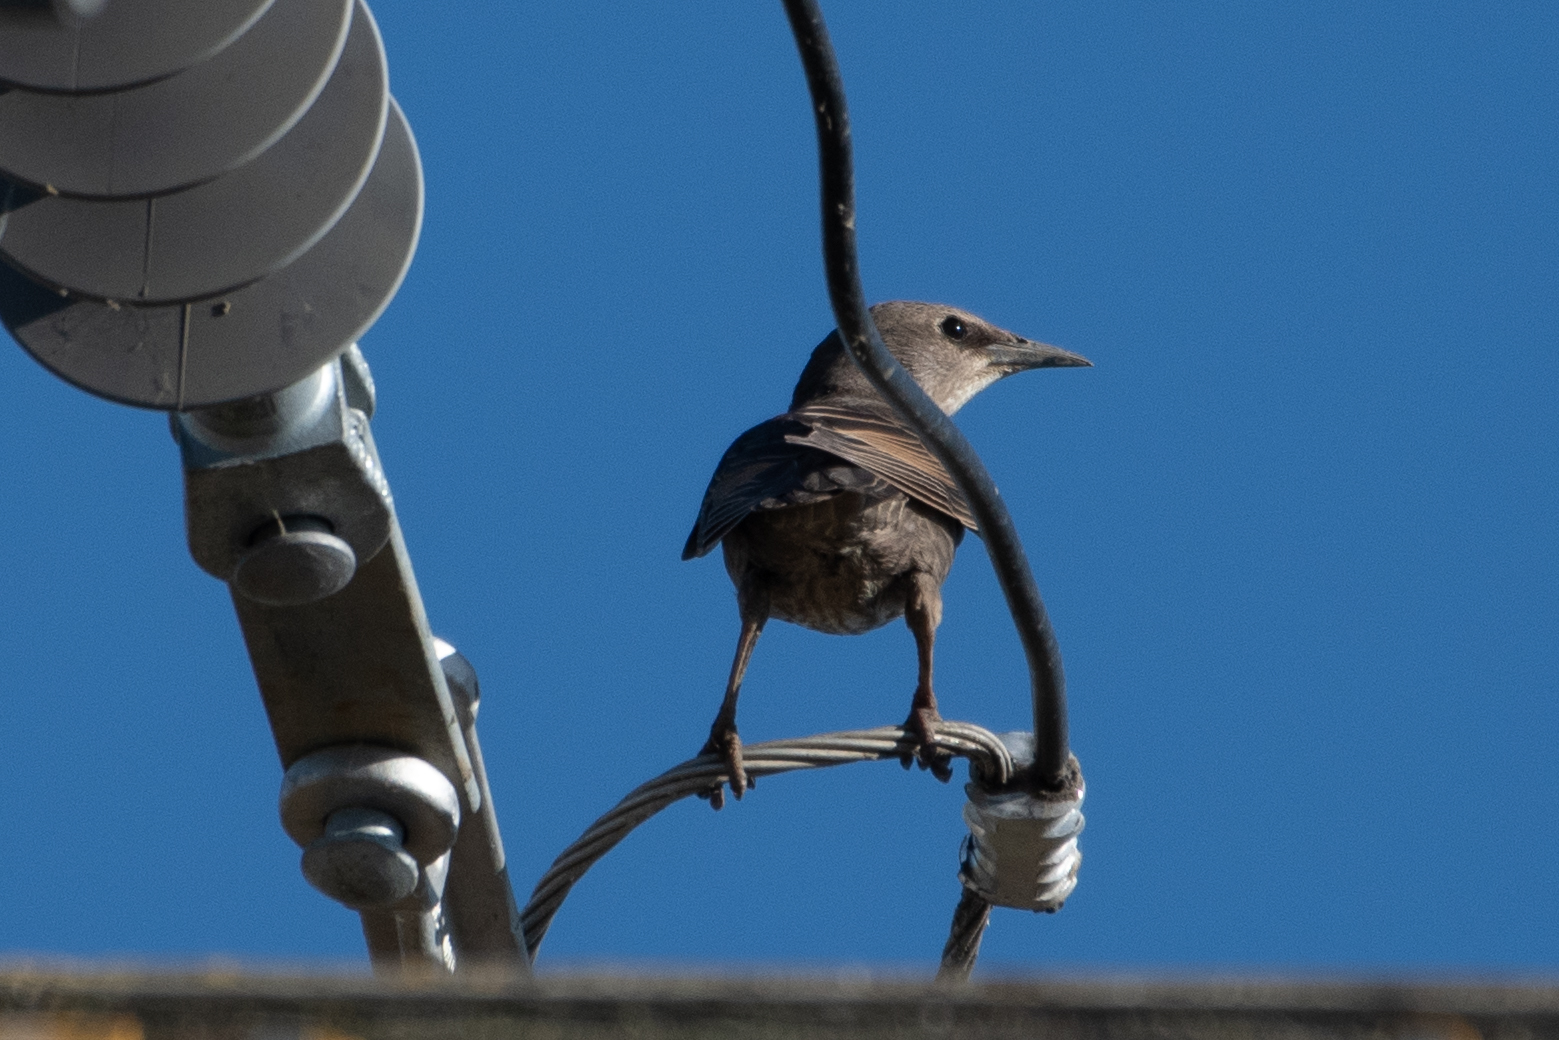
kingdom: Animalia
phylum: Chordata
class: Aves
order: Passeriformes
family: Sturnidae
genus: Sturnus
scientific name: Sturnus vulgaris
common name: Common starling
